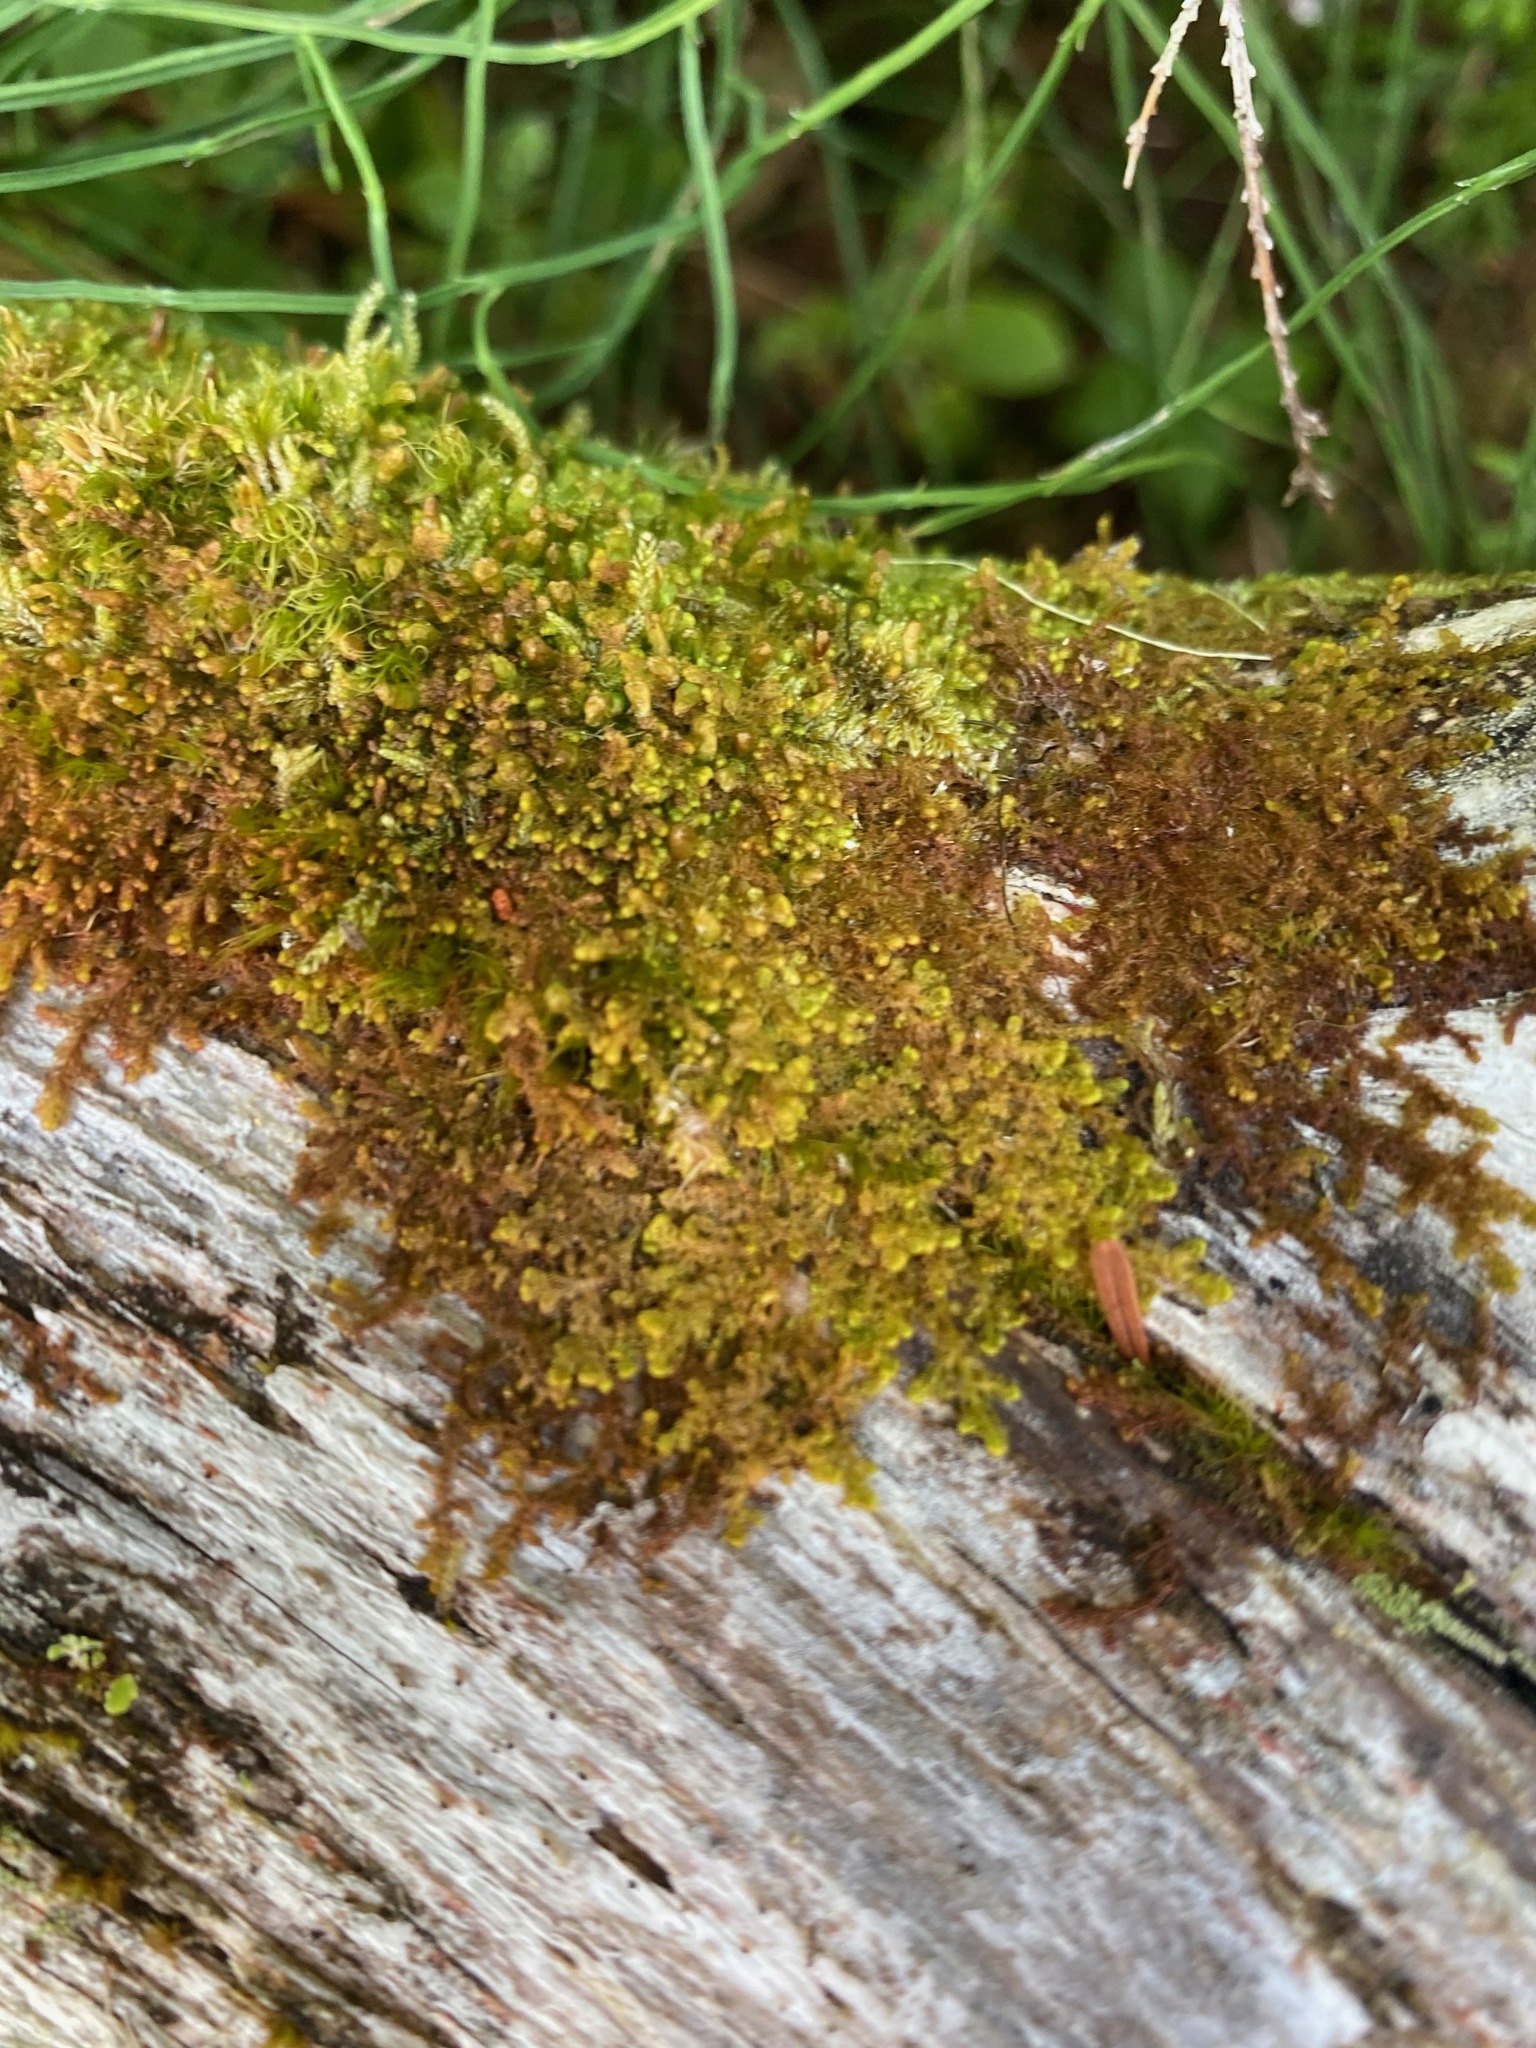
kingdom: Plantae
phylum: Marchantiophyta
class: Jungermanniopsida
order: Ptilidiales
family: Ptilidiaceae
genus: Ptilidium
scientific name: Ptilidium pulcherrimum
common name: Tree fringewort
